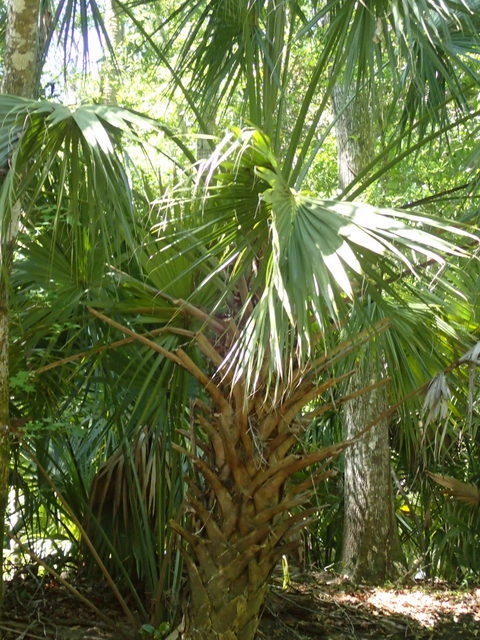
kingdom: Plantae
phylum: Tracheophyta
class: Liliopsida
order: Arecales
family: Arecaceae
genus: Sabal
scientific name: Sabal palmetto
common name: Blue palmetto
